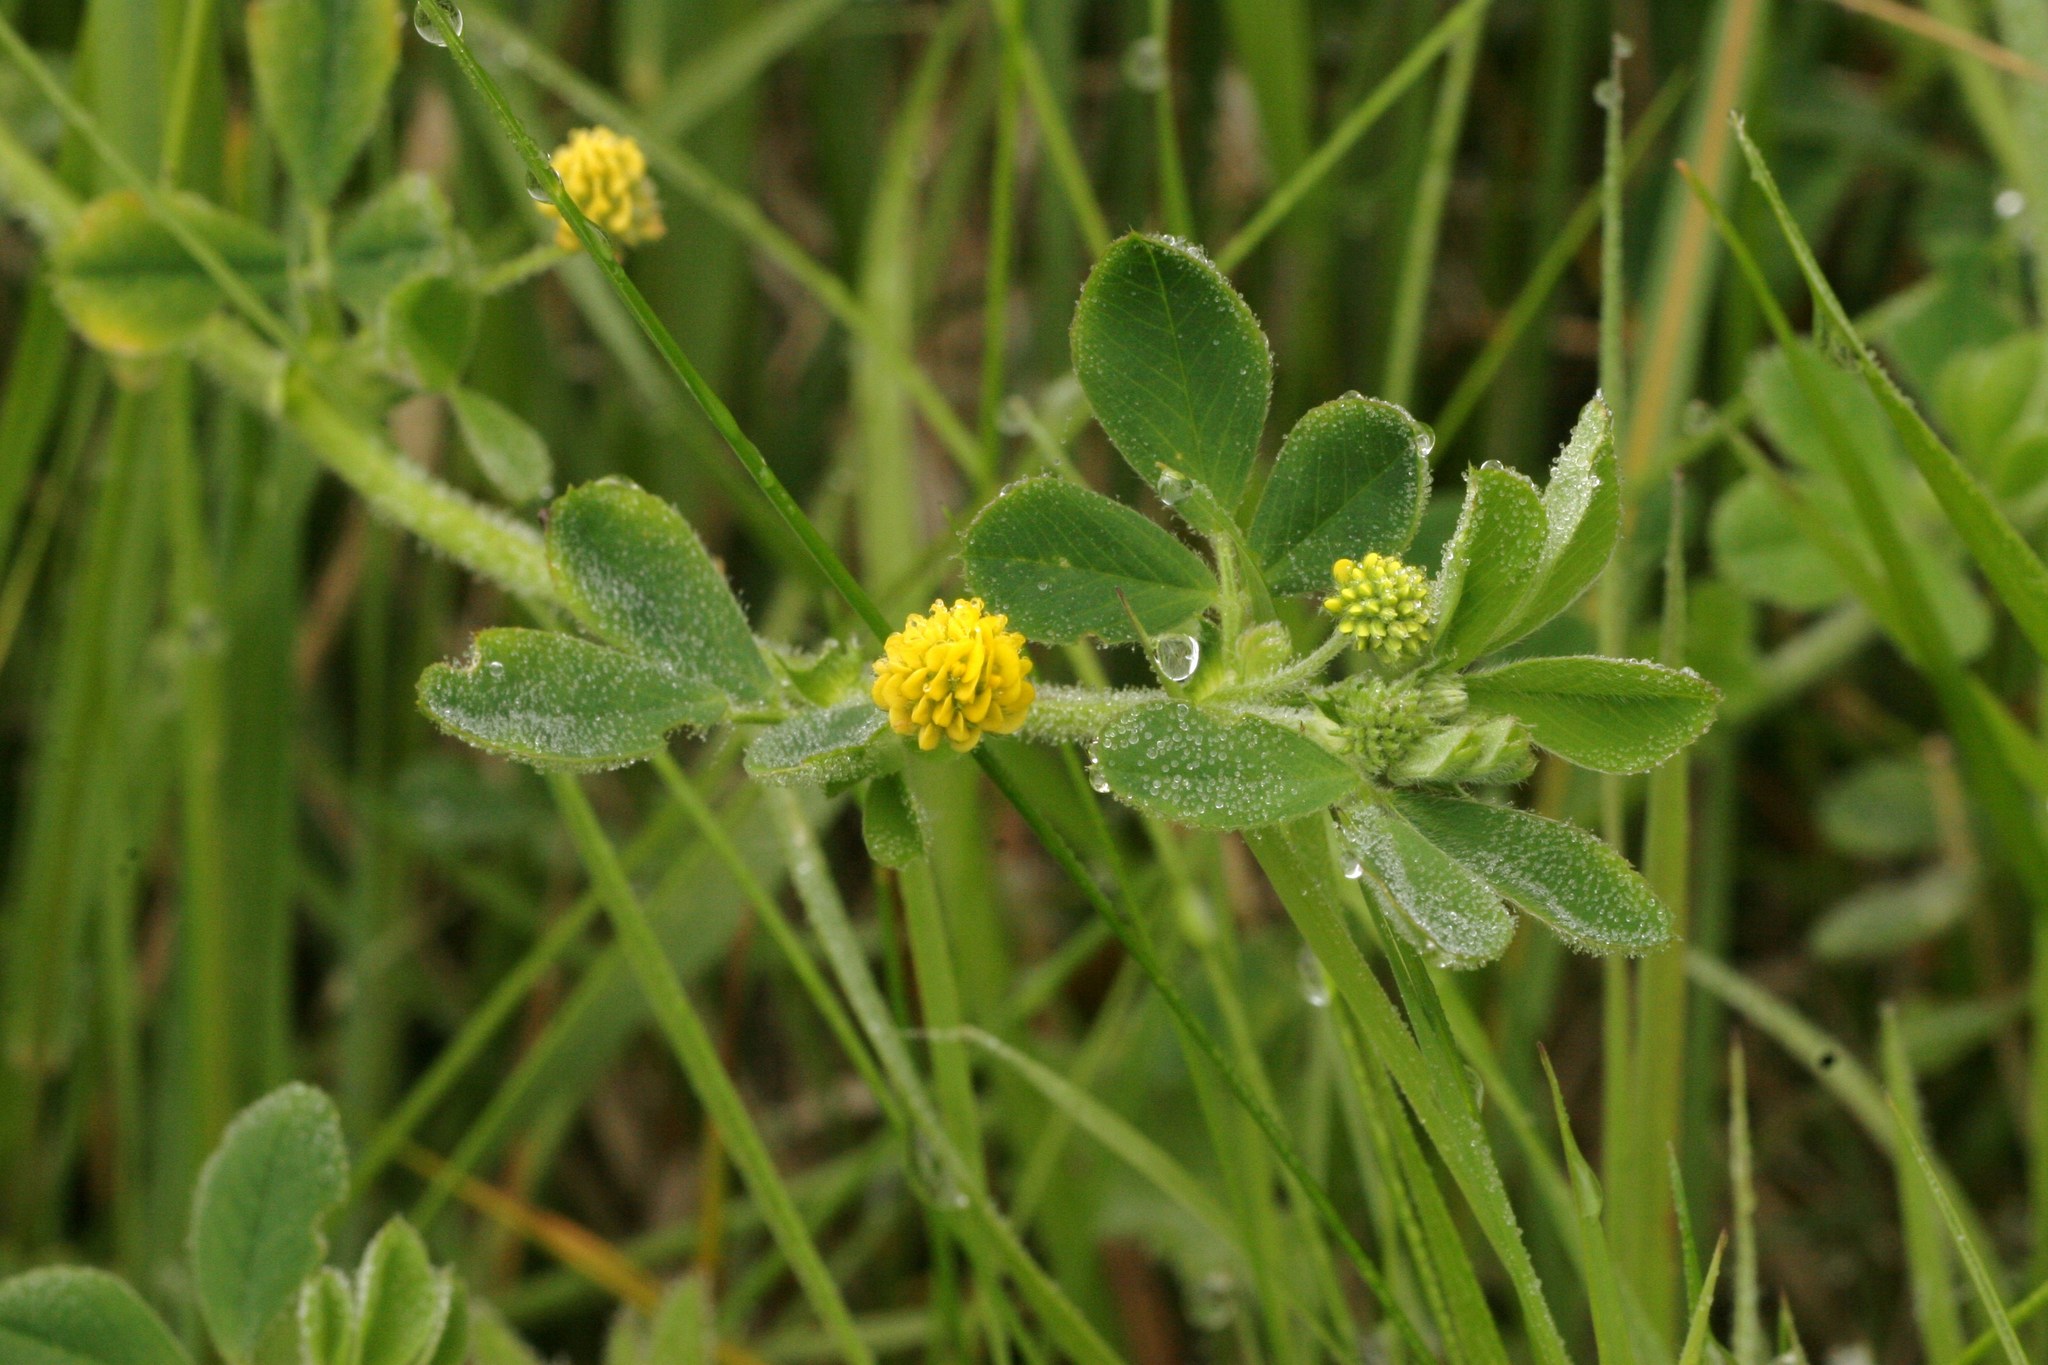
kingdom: Plantae
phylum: Tracheophyta
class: Magnoliopsida
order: Fabales
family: Fabaceae
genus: Medicago
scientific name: Medicago lupulina
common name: Black medick
